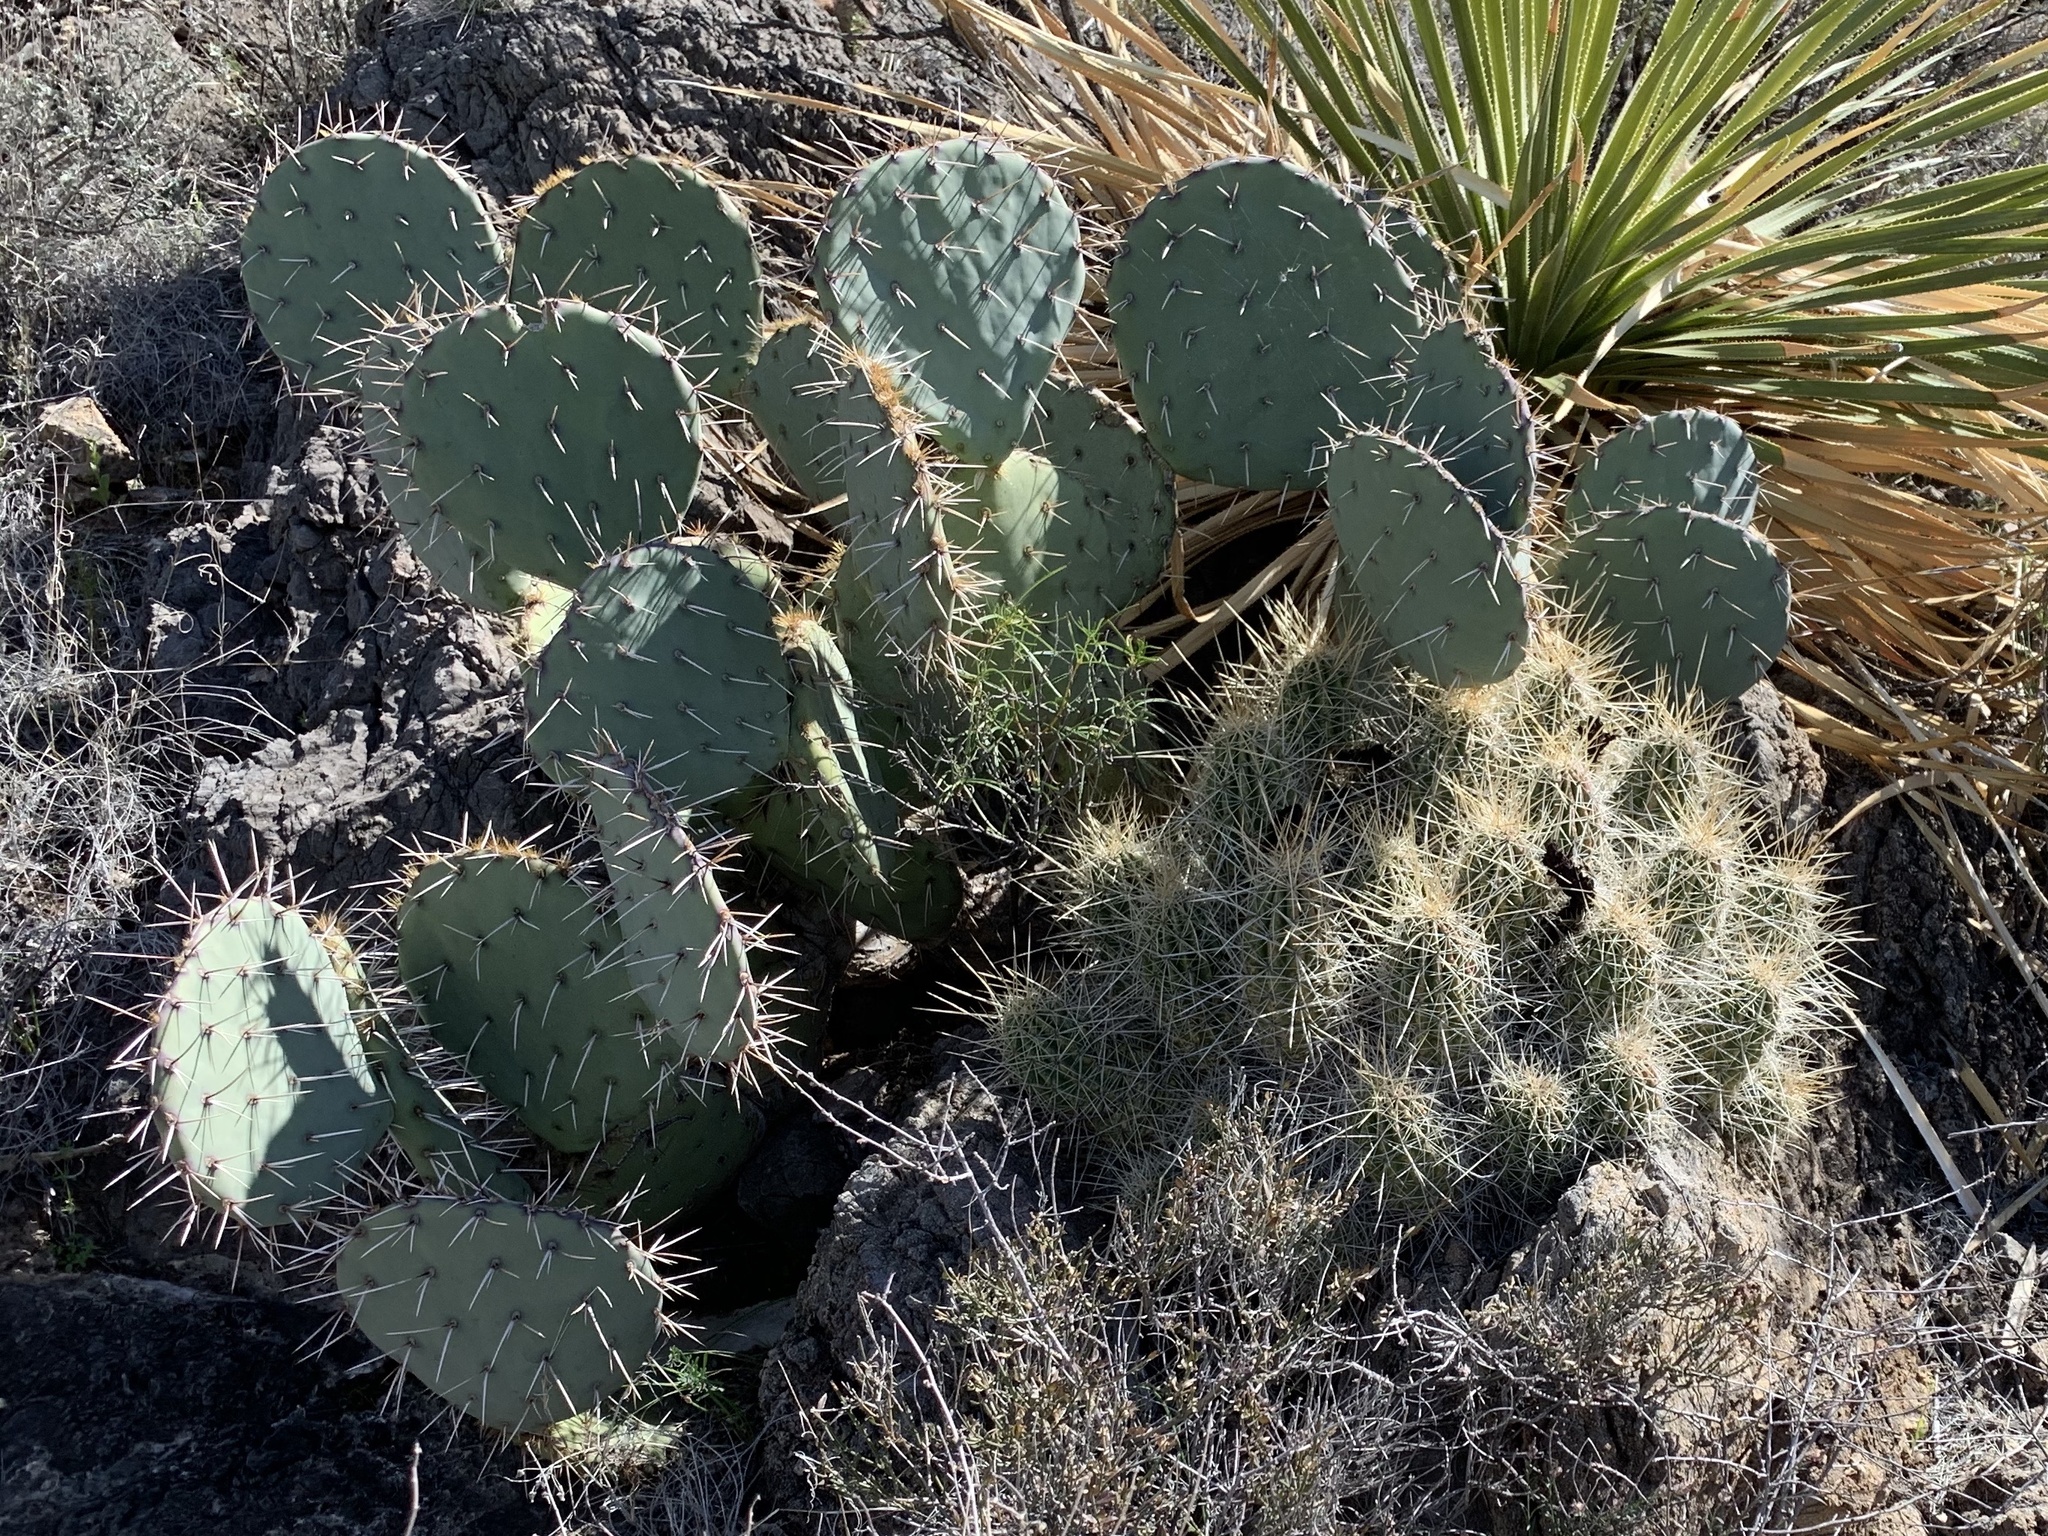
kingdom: Plantae
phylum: Tracheophyta
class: Magnoliopsida
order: Caryophyllales
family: Cactaceae
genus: Opuntia
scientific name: Opuntia engelmannii
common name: Cactus-apple
